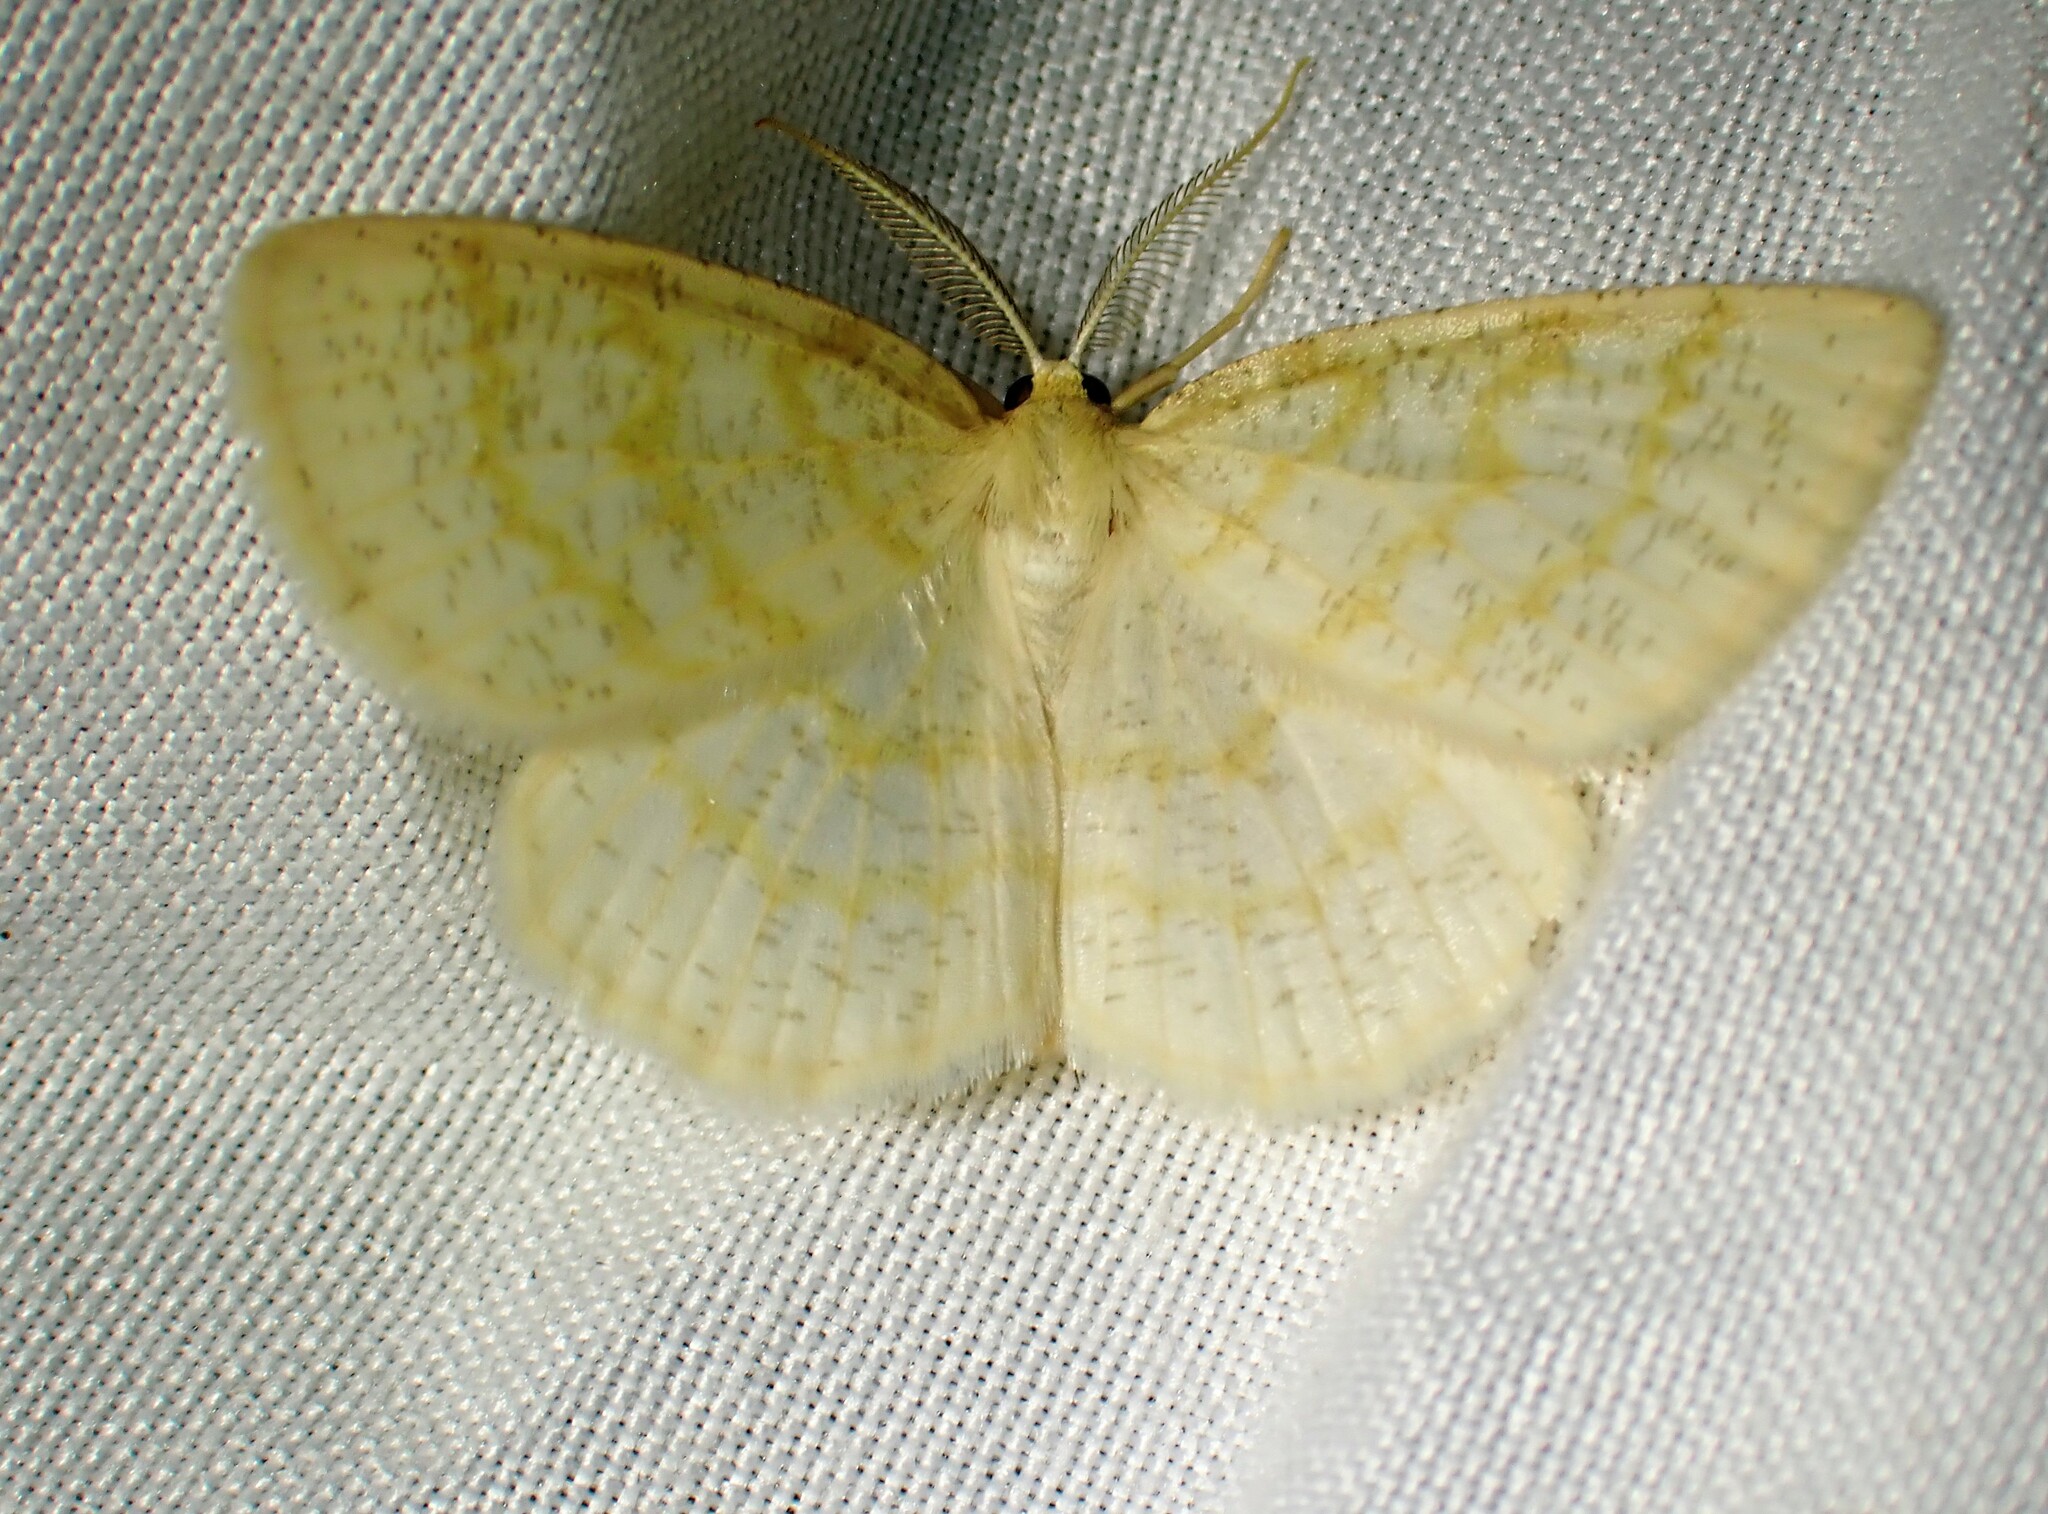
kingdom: Animalia
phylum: Arthropoda
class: Insecta
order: Lepidoptera
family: Geometridae
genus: Cabera
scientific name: Cabera erythemaria
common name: Yellow-dusted cream moth
